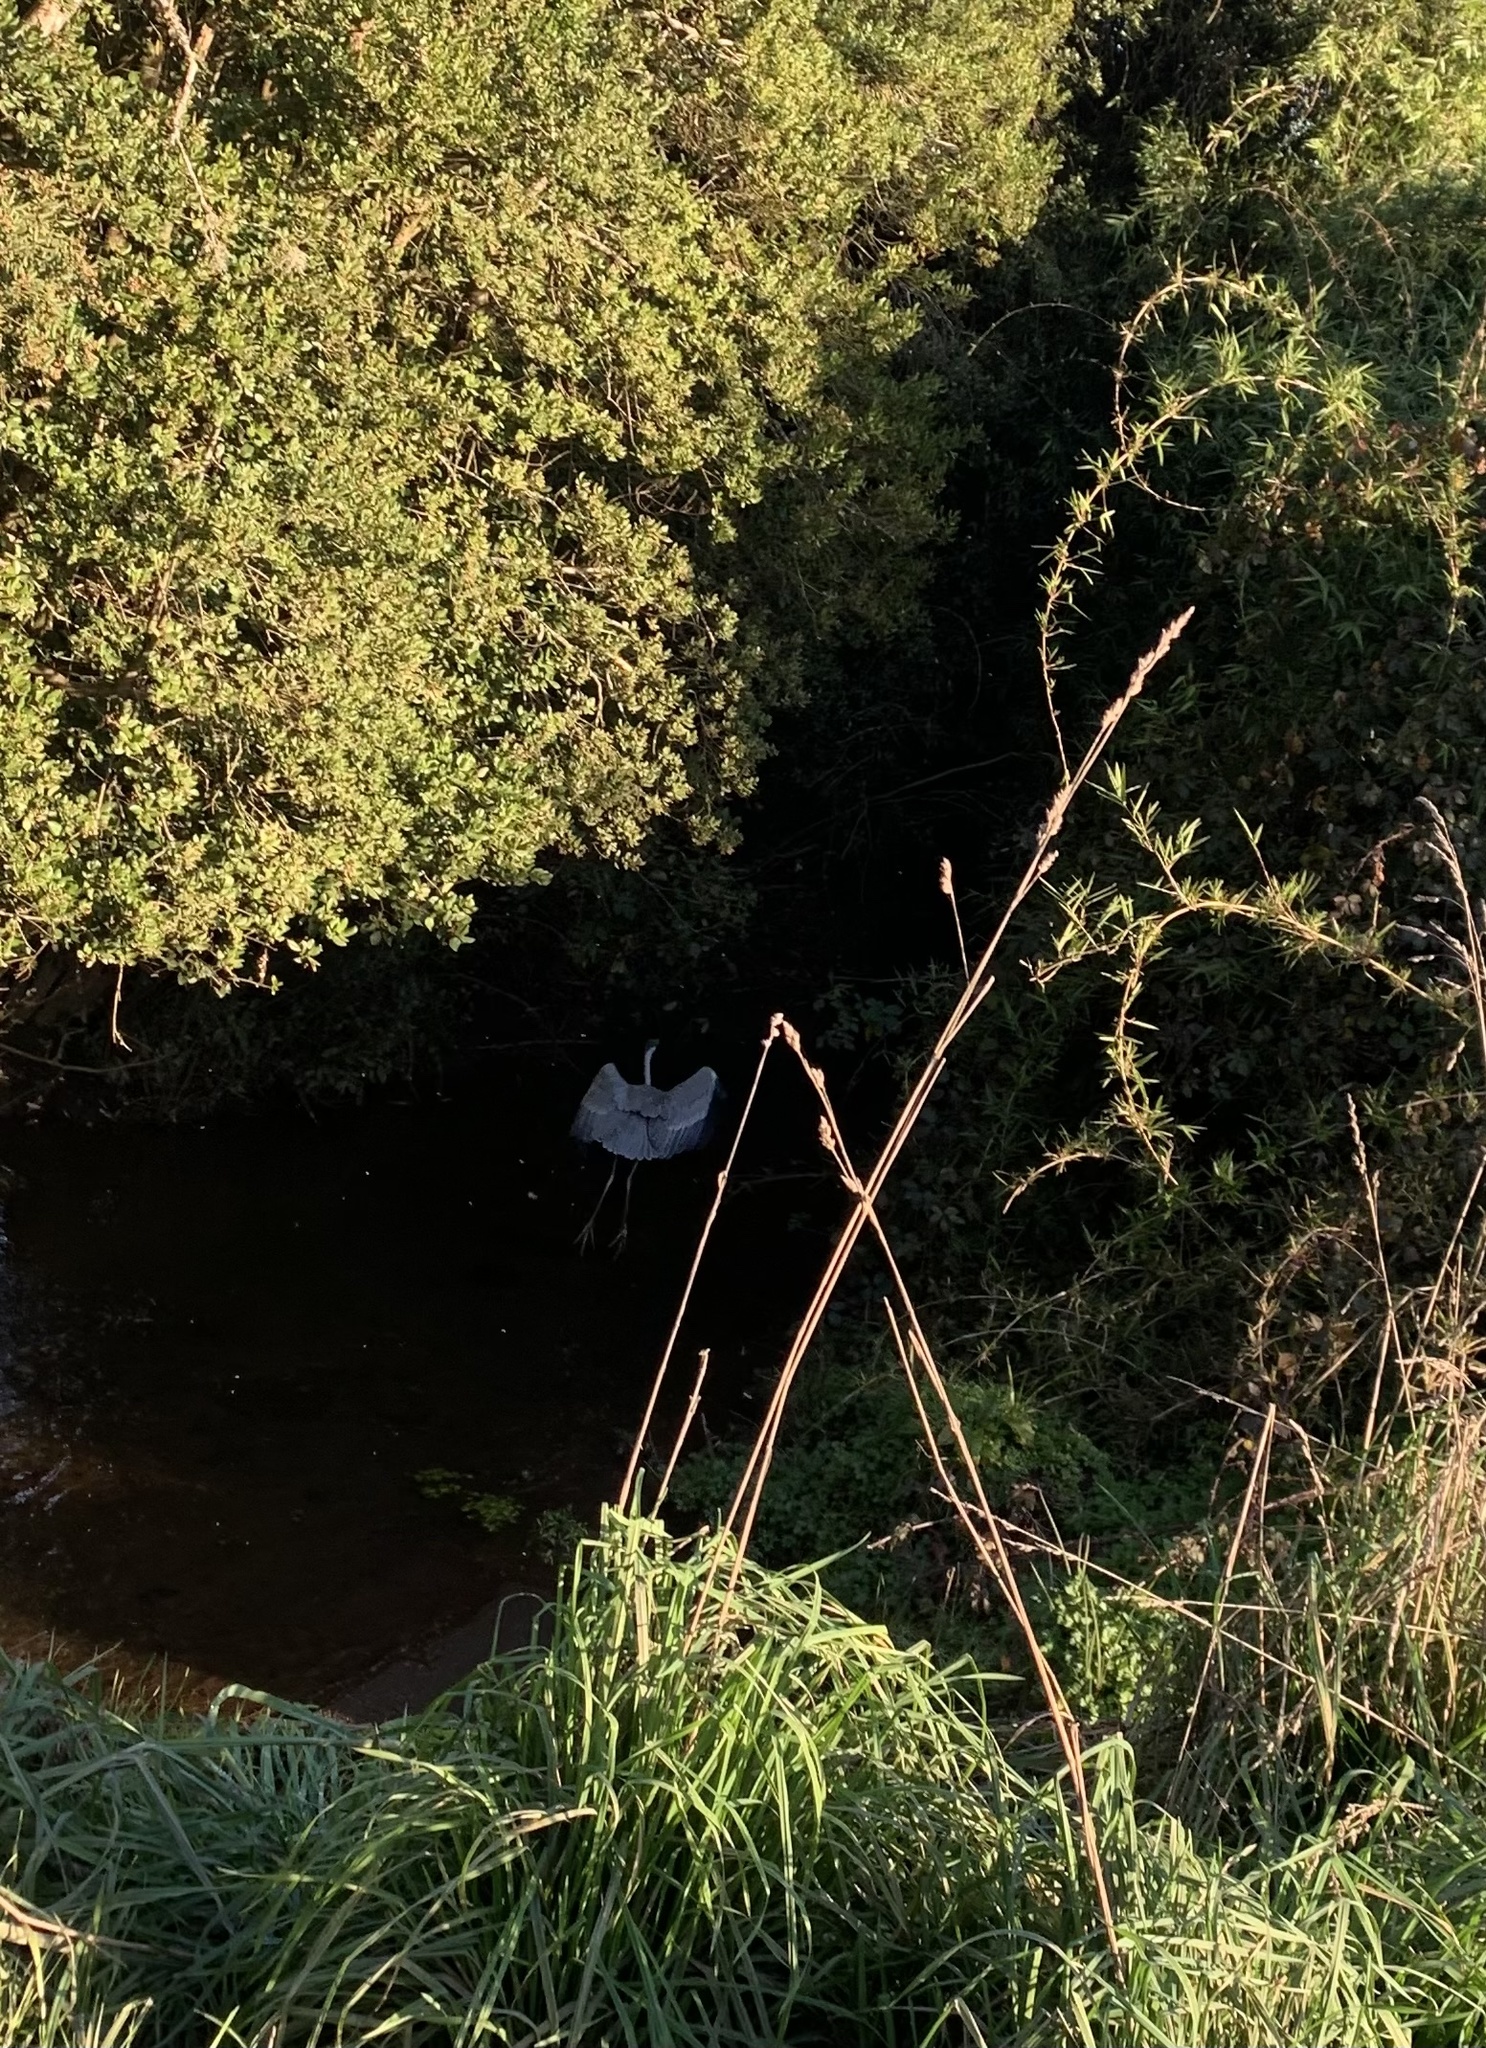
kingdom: Animalia
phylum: Chordata
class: Aves
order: Pelecaniformes
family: Ardeidae
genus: Ardea
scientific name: Ardea cocoi
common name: Cocoi heron
